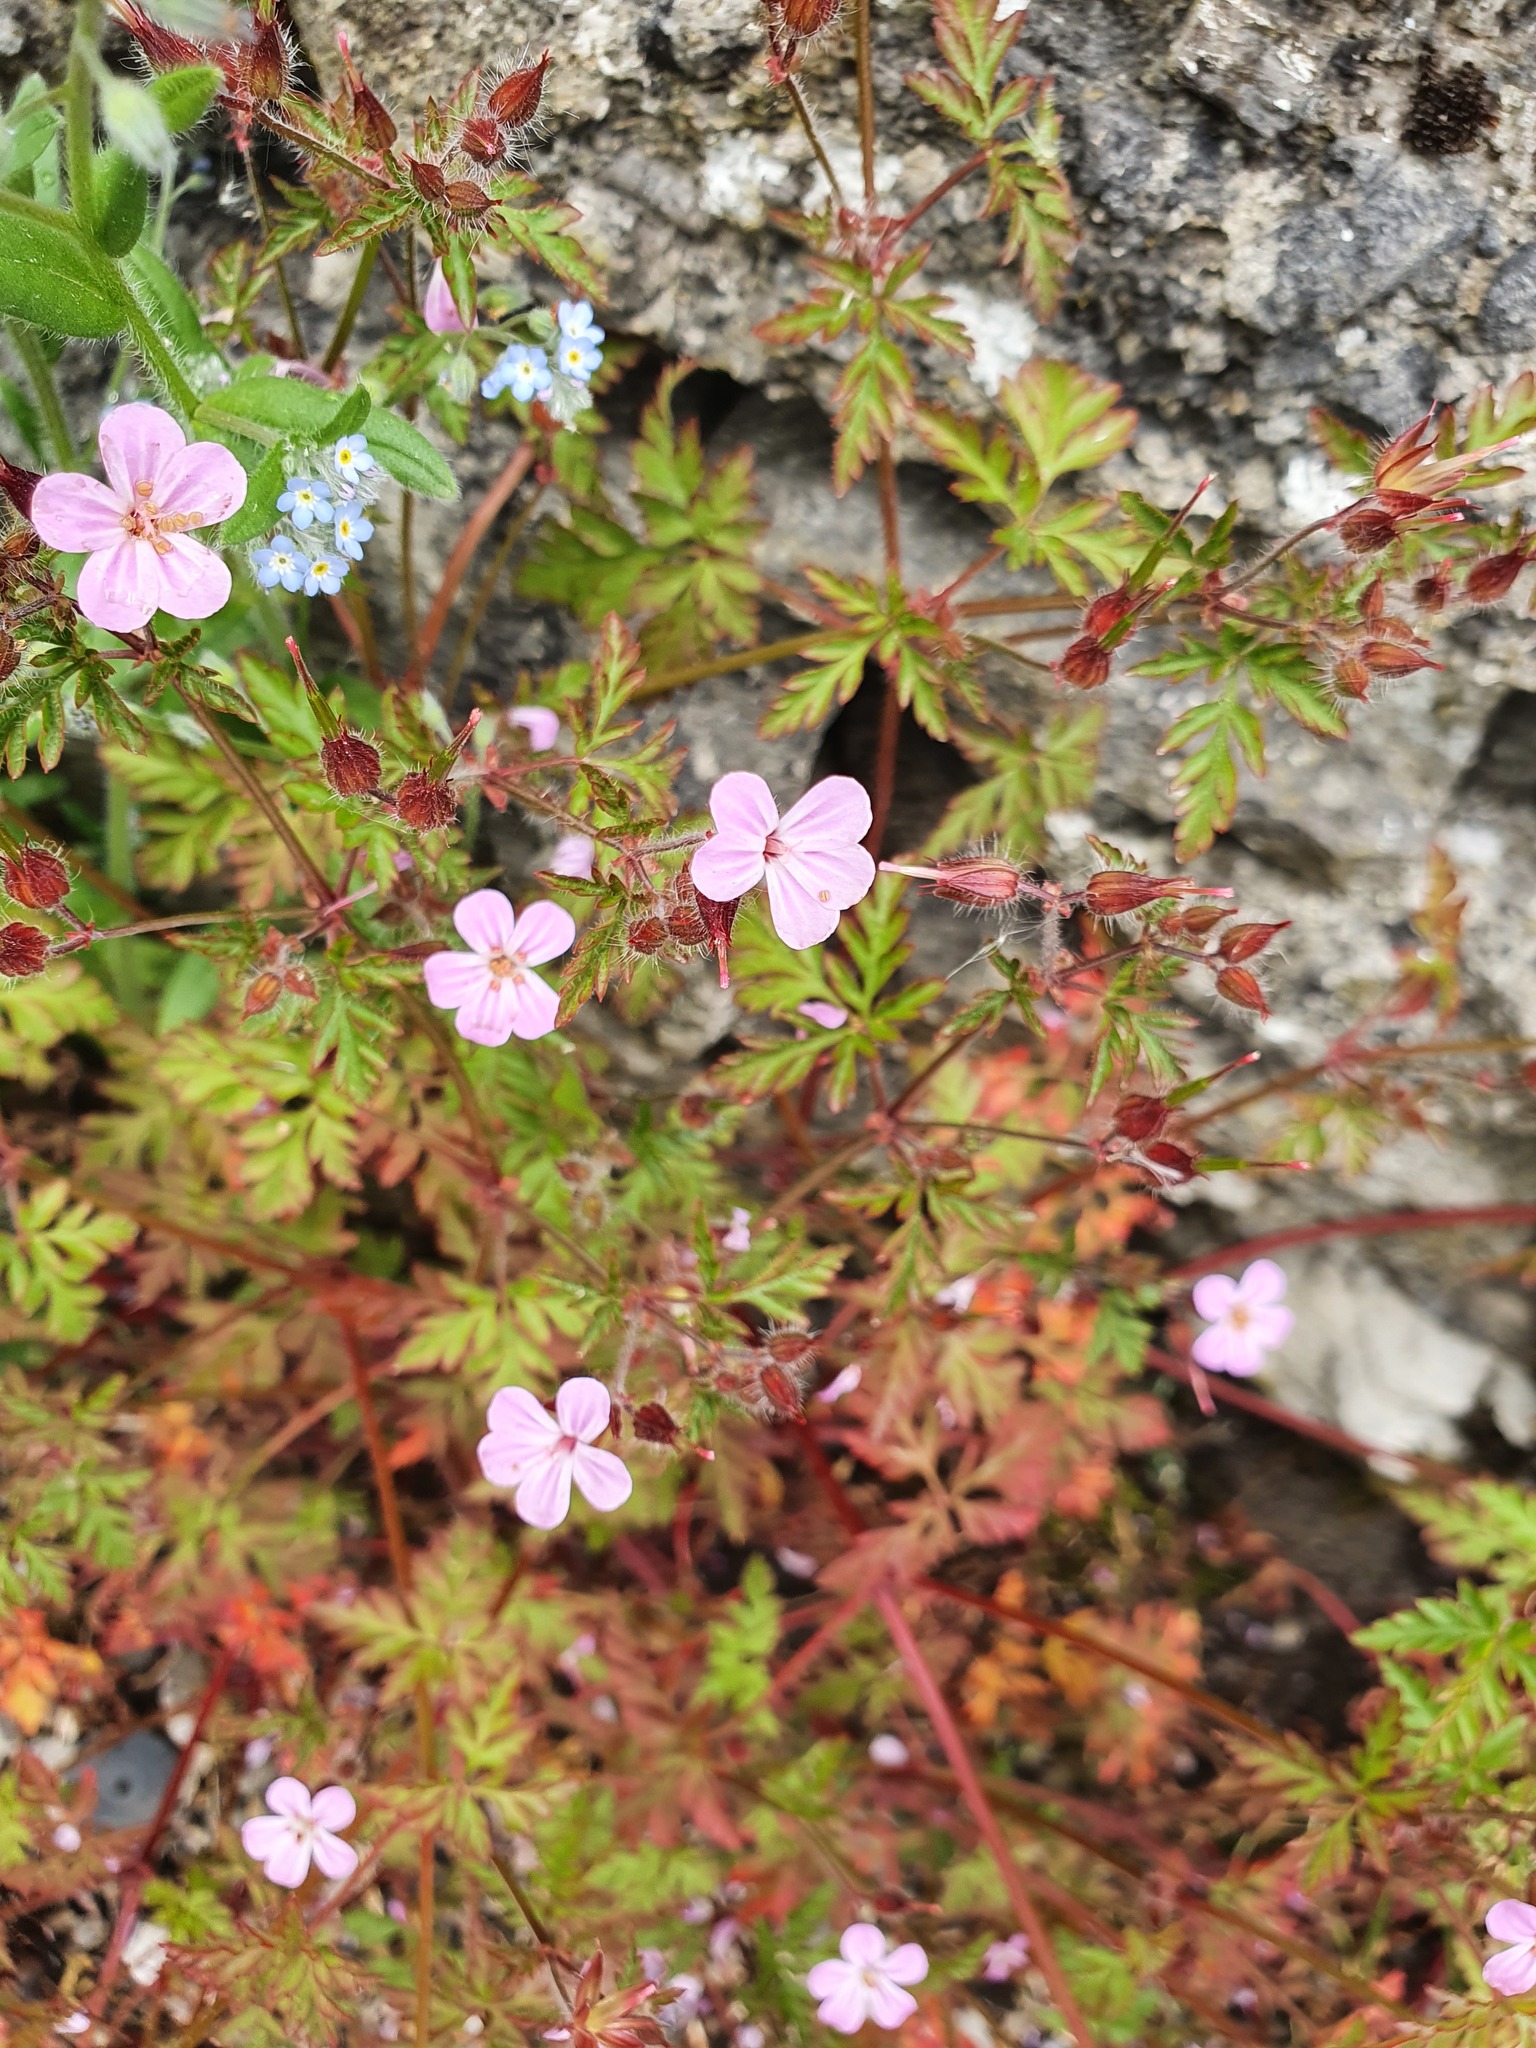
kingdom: Plantae
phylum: Tracheophyta
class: Magnoliopsida
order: Geraniales
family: Geraniaceae
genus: Geranium
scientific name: Geranium robertianum
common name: Herb-robert
